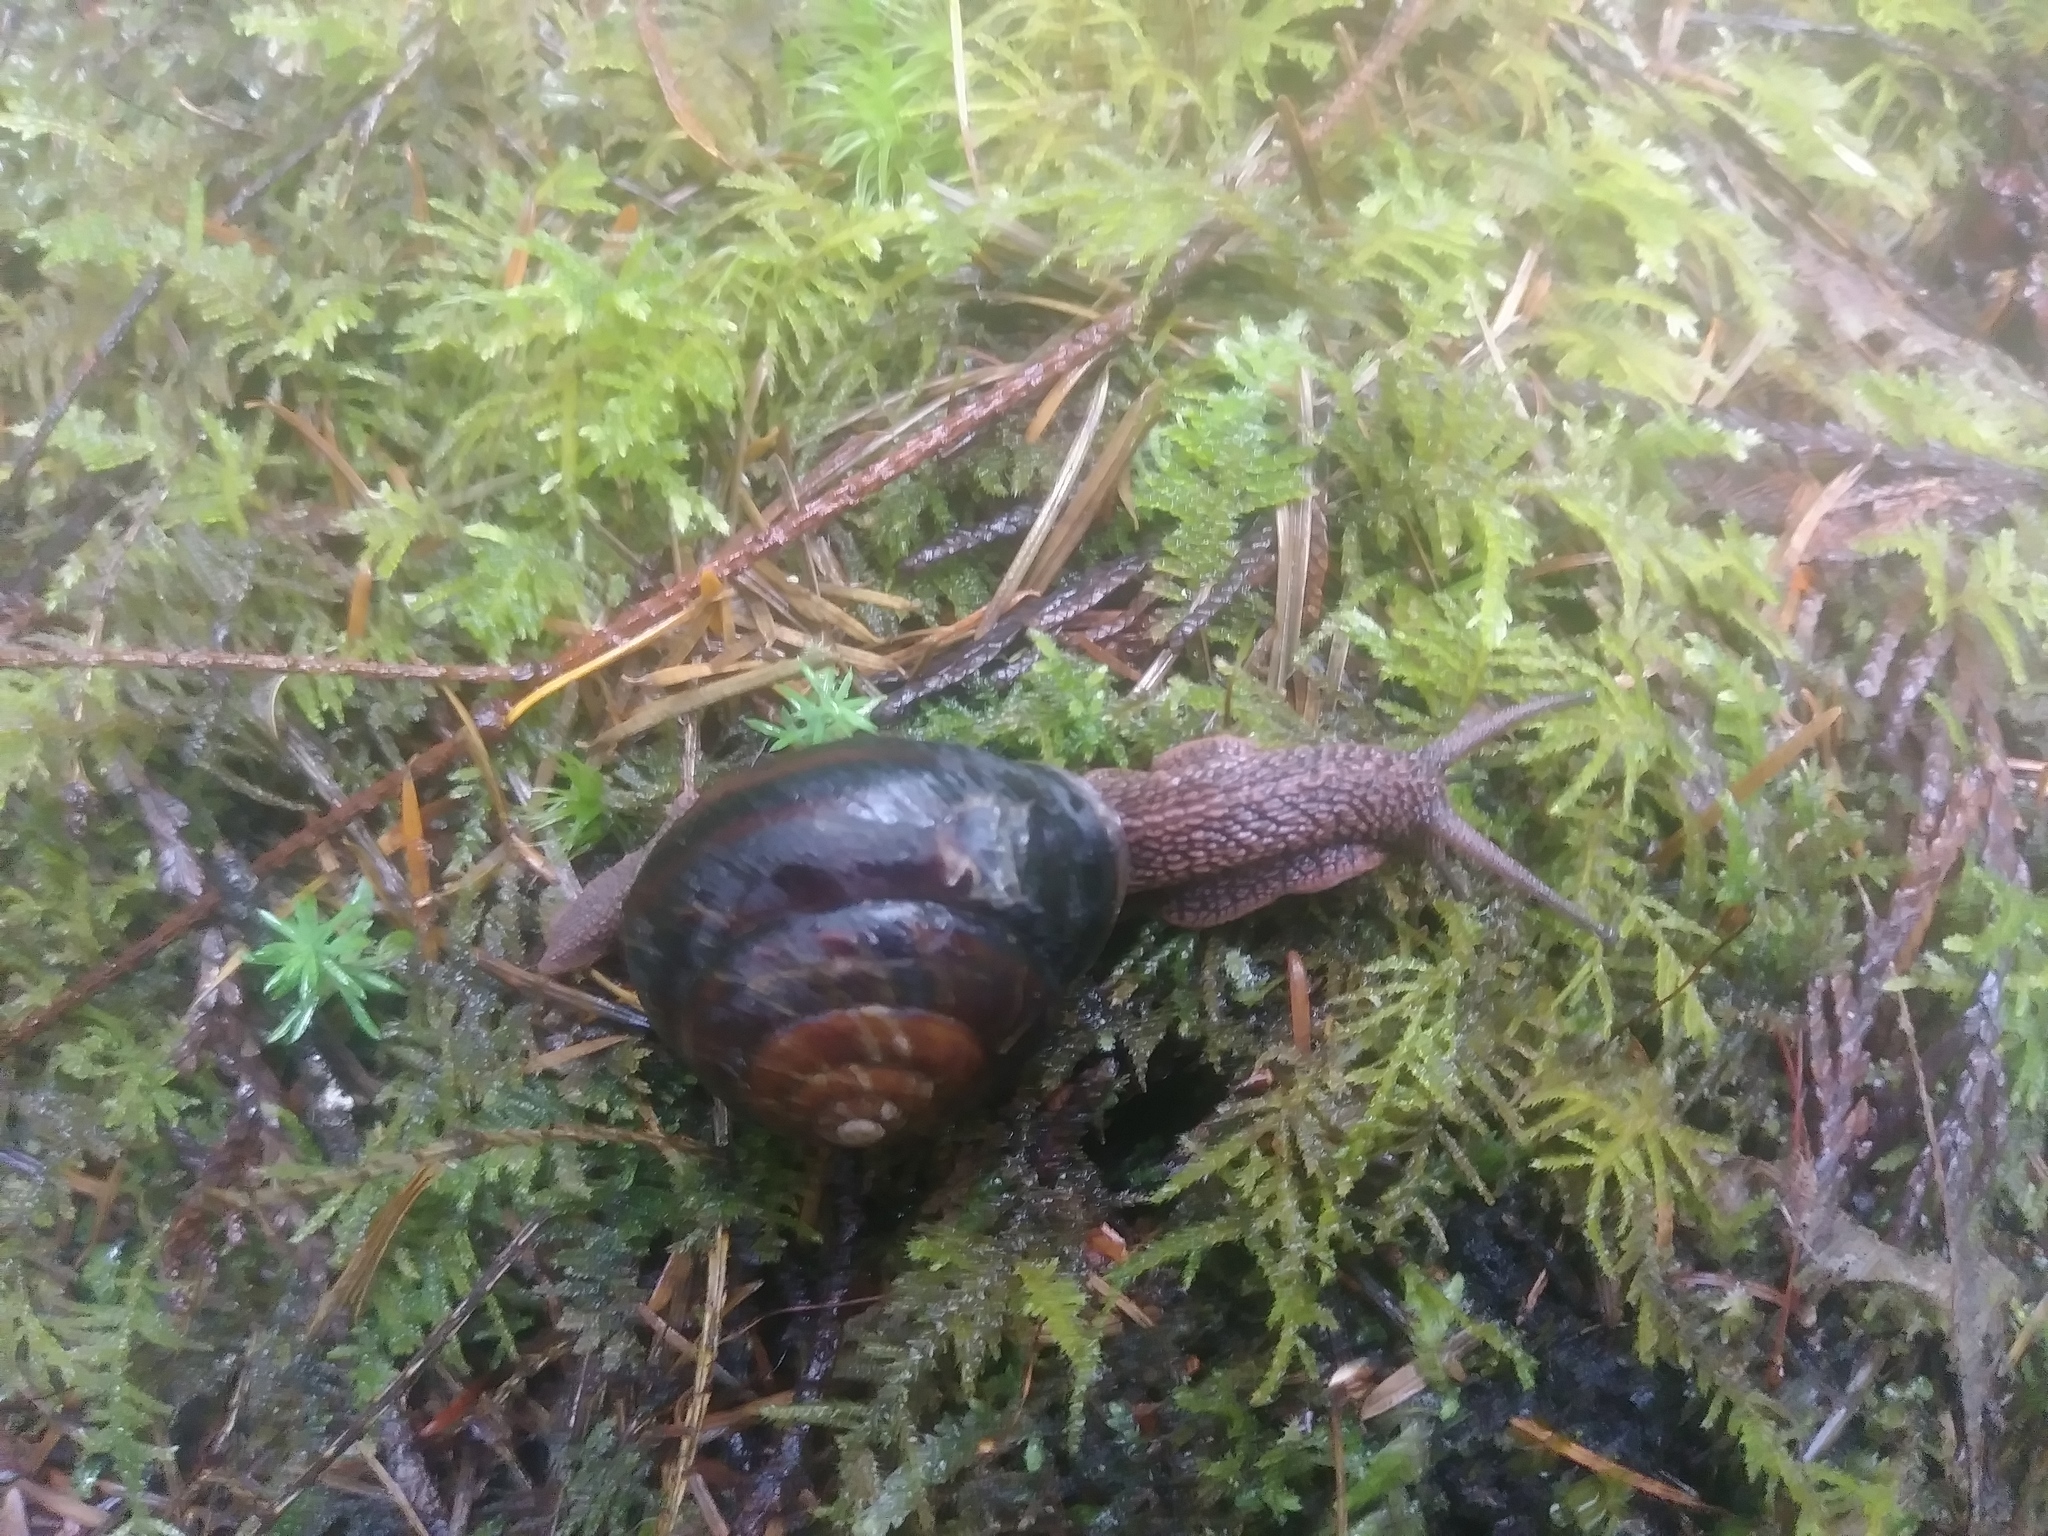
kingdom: Animalia
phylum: Mollusca
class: Gastropoda
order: Stylommatophora
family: Xanthonychidae
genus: Monadenia
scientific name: Monadenia fidelis
